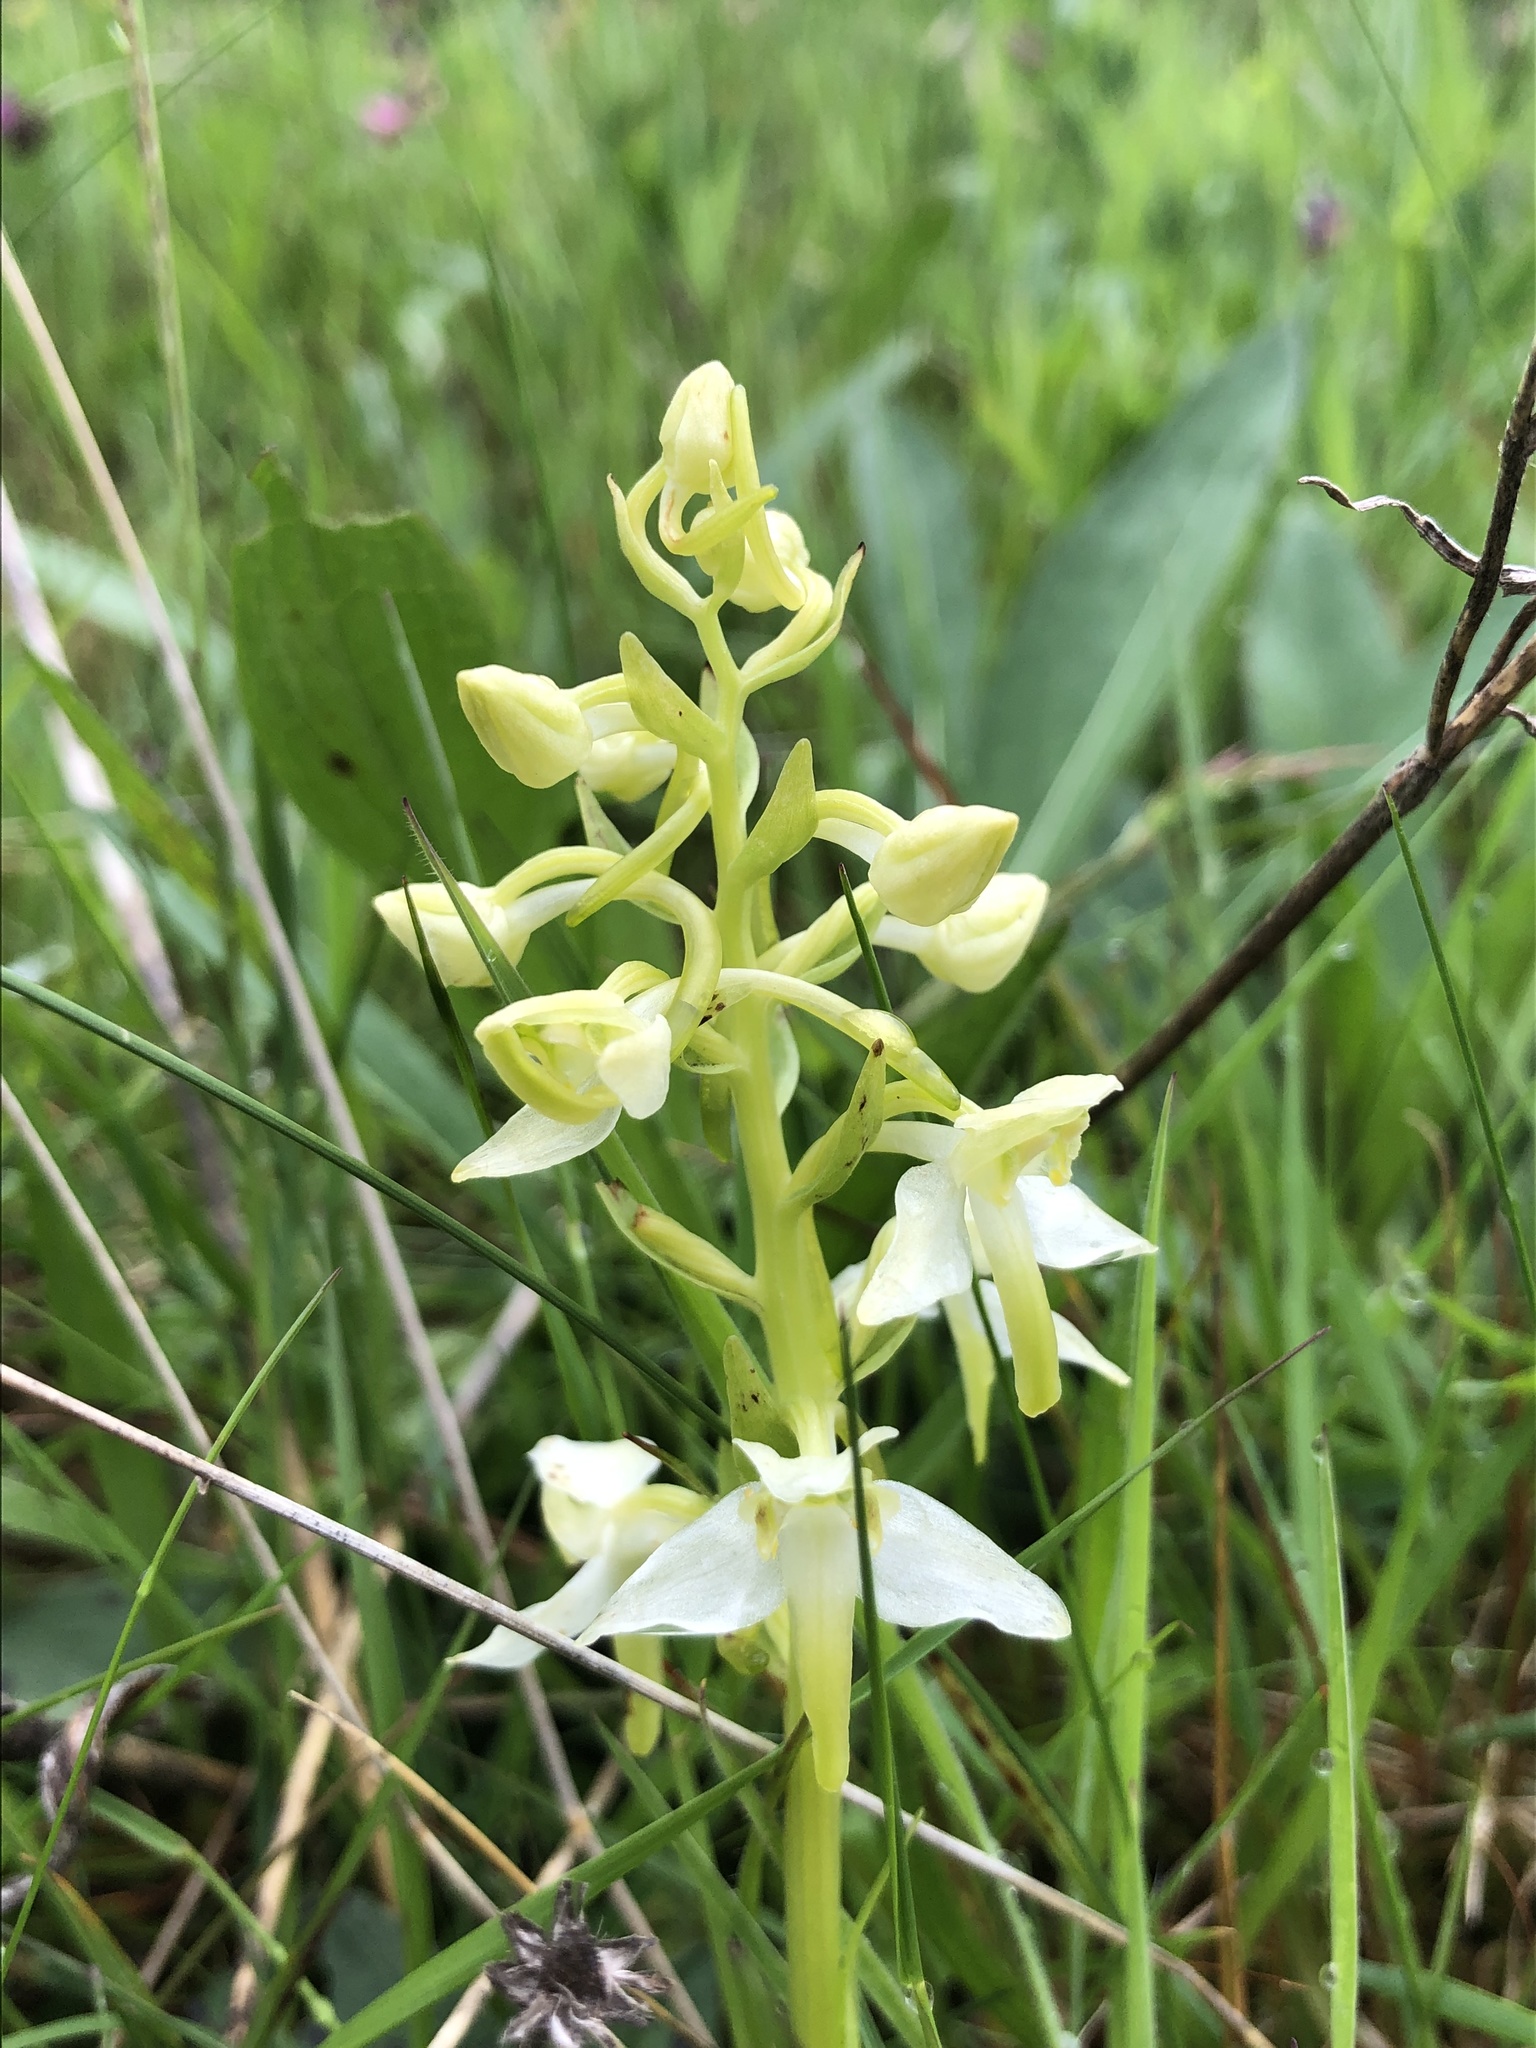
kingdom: Plantae
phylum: Tracheophyta
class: Liliopsida
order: Asparagales
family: Orchidaceae
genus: Platanthera
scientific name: Platanthera chlorantha
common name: Greater butterfly-orchid
